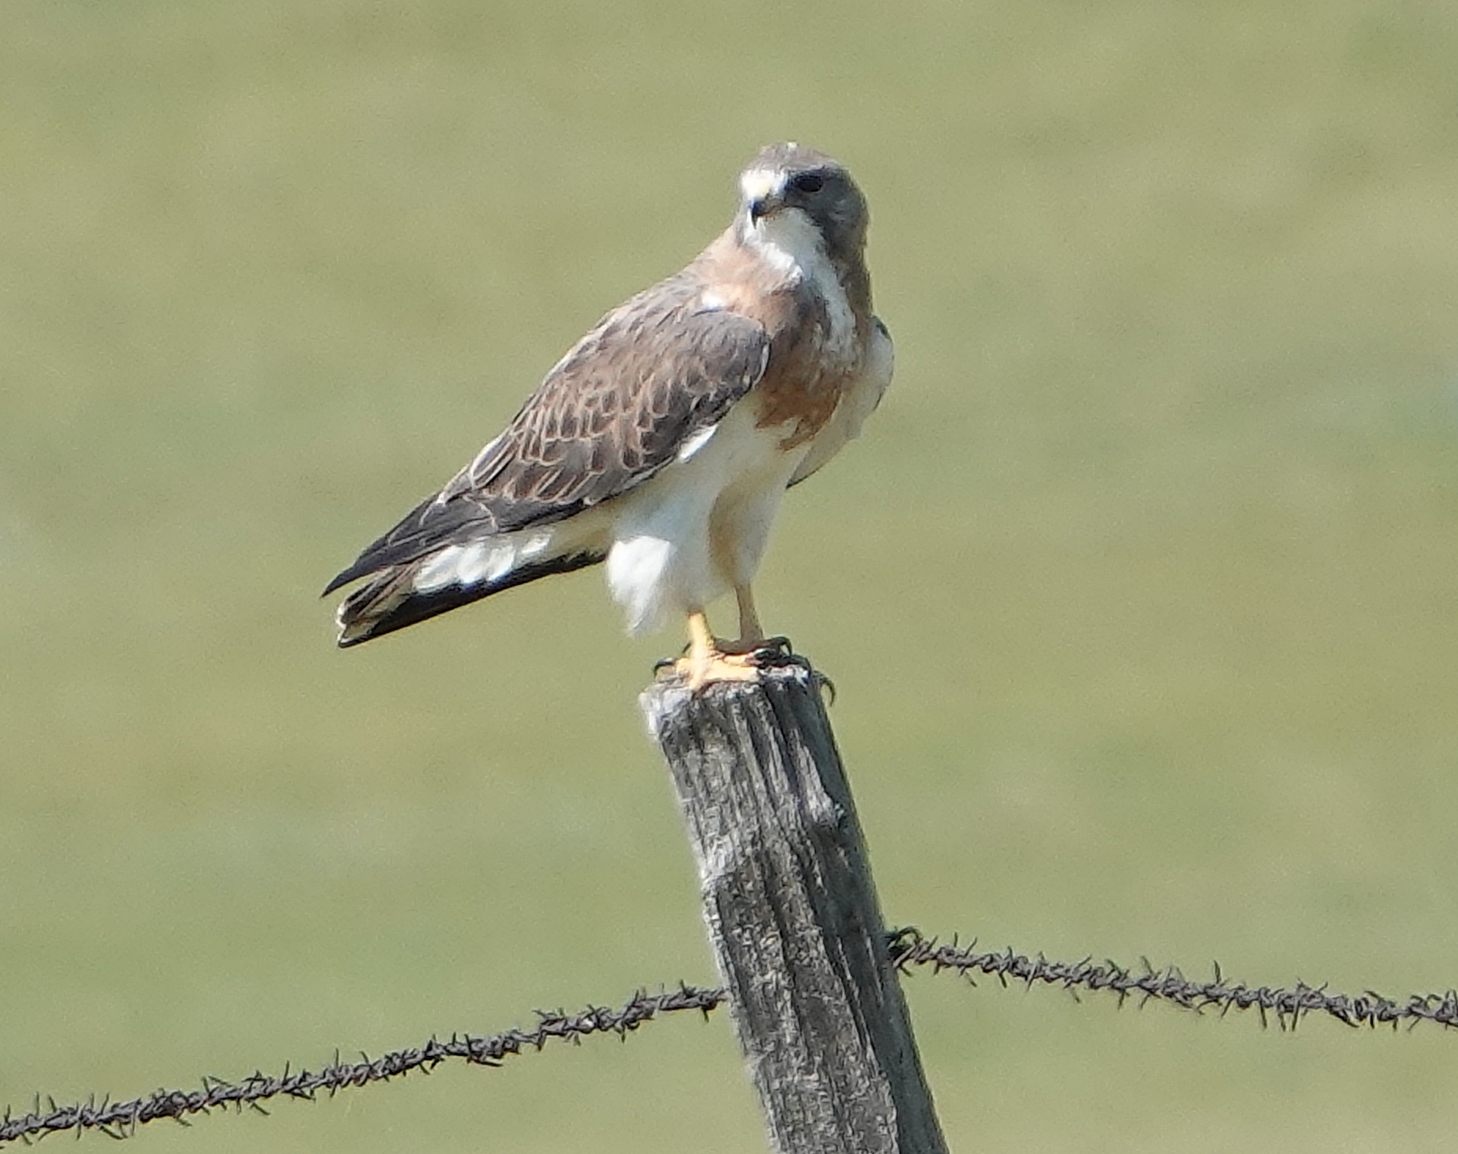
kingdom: Animalia
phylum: Chordata
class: Aves
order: Accipitriformes
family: Accipitridae
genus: Buteo
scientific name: Buteo swainsoni
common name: Swainson's hawk
